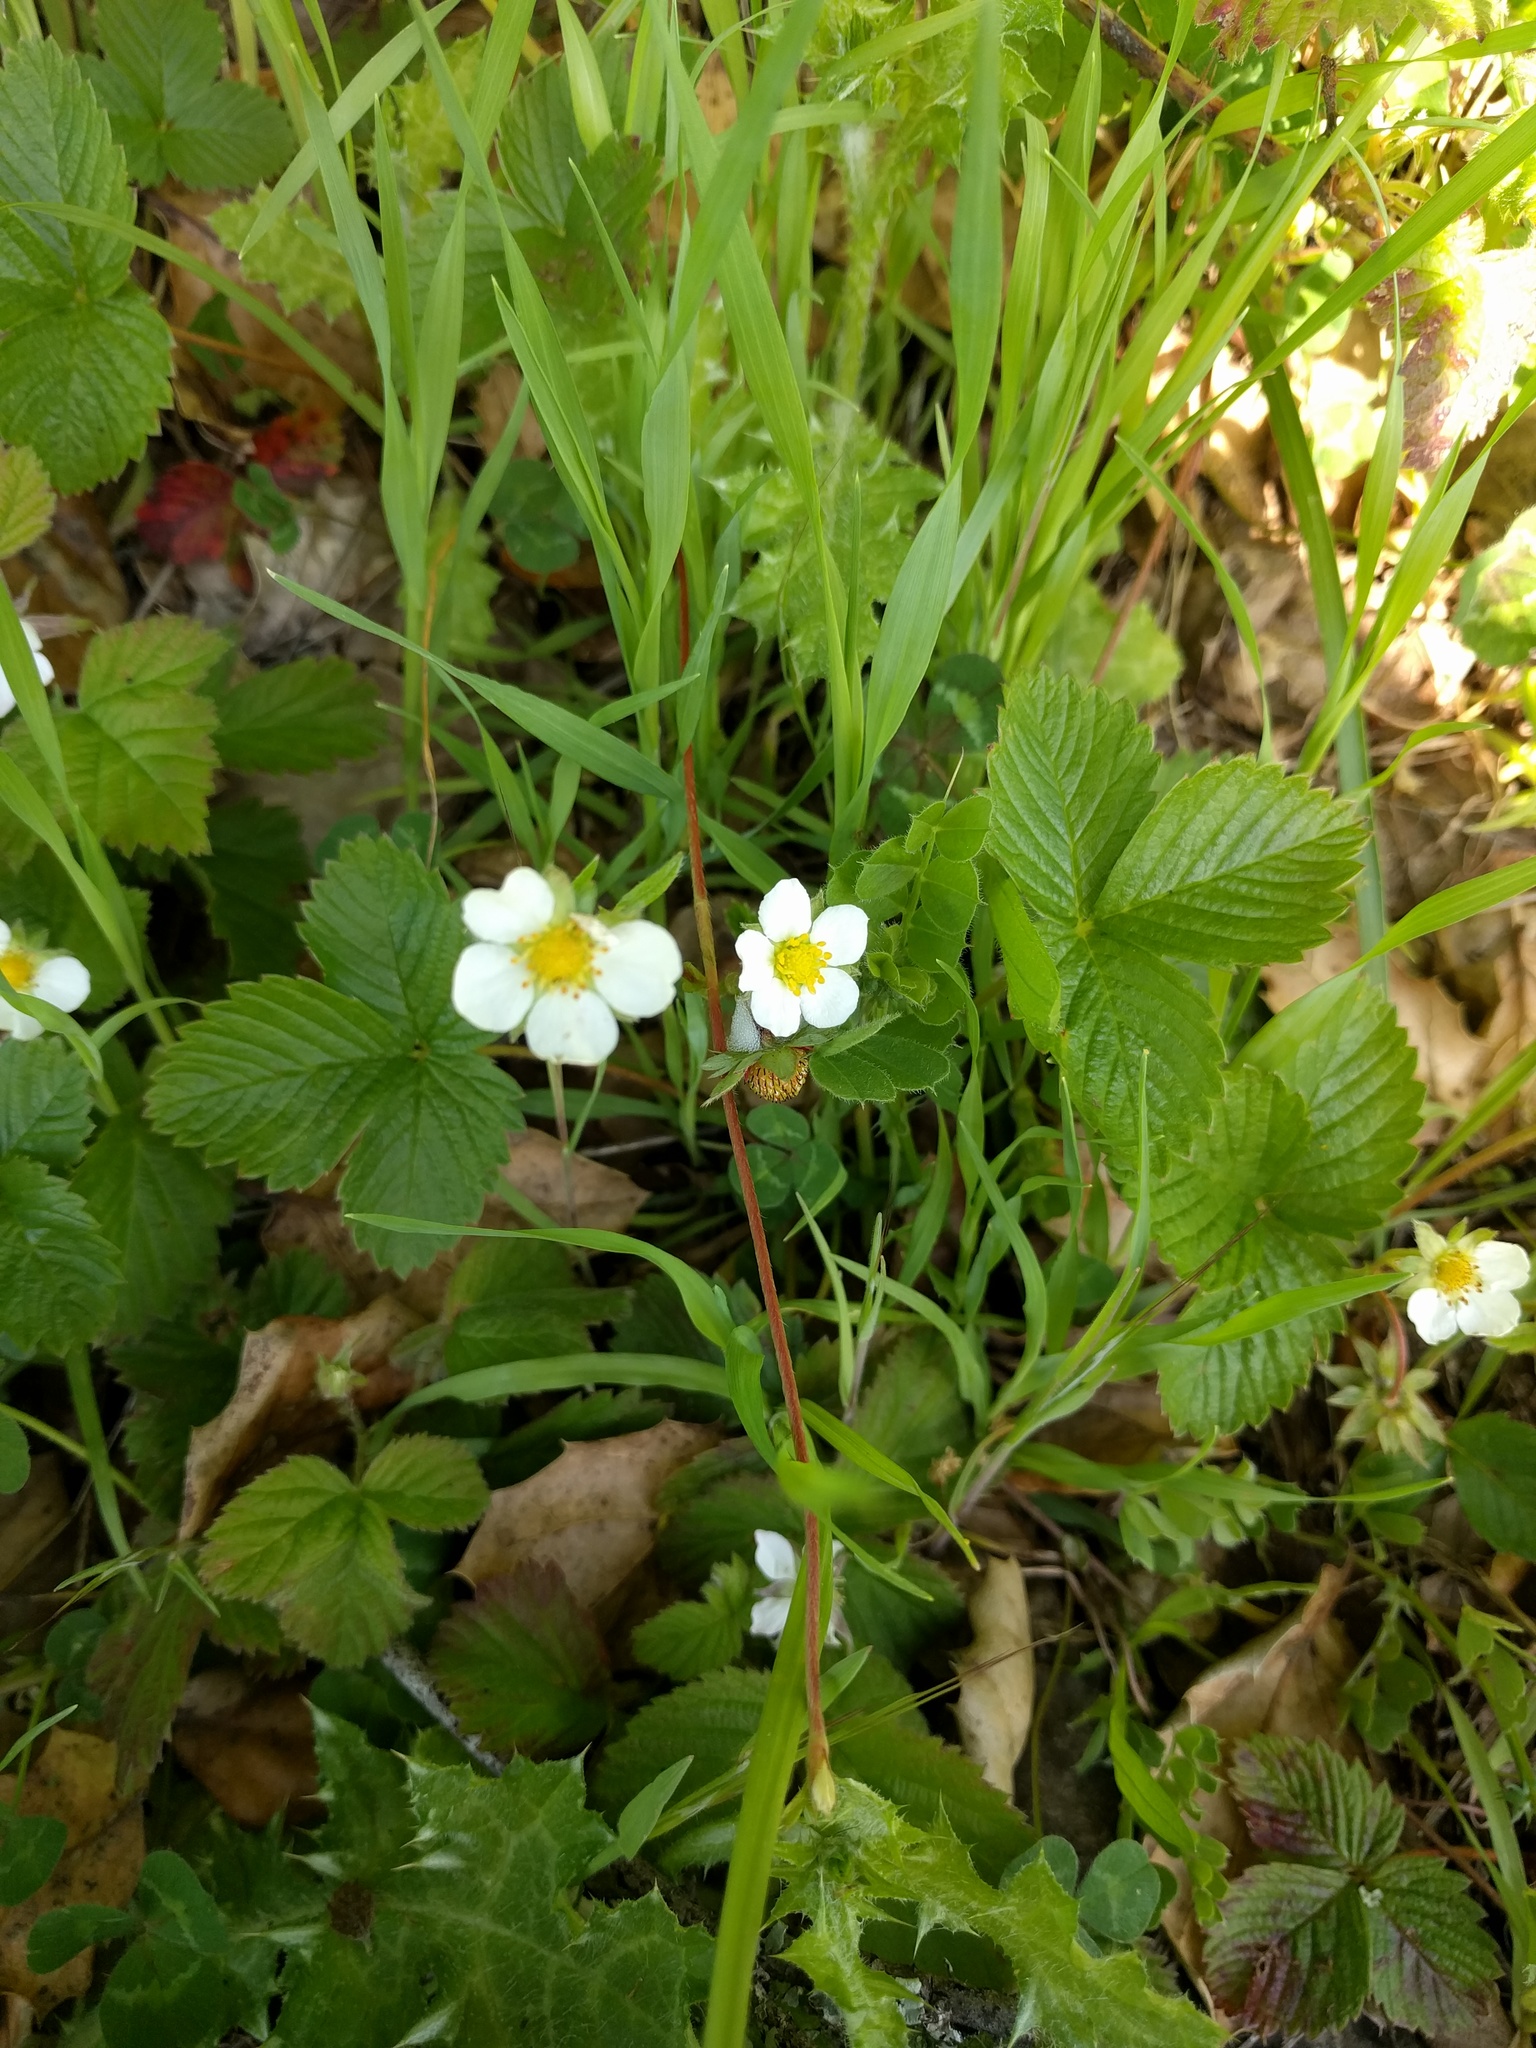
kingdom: Plantae
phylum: Tracheophyta
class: Magnoliopsida
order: Rosales
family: Rosaceae
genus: Fragaria
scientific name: Fragaria vesca
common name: Wild strawberry
